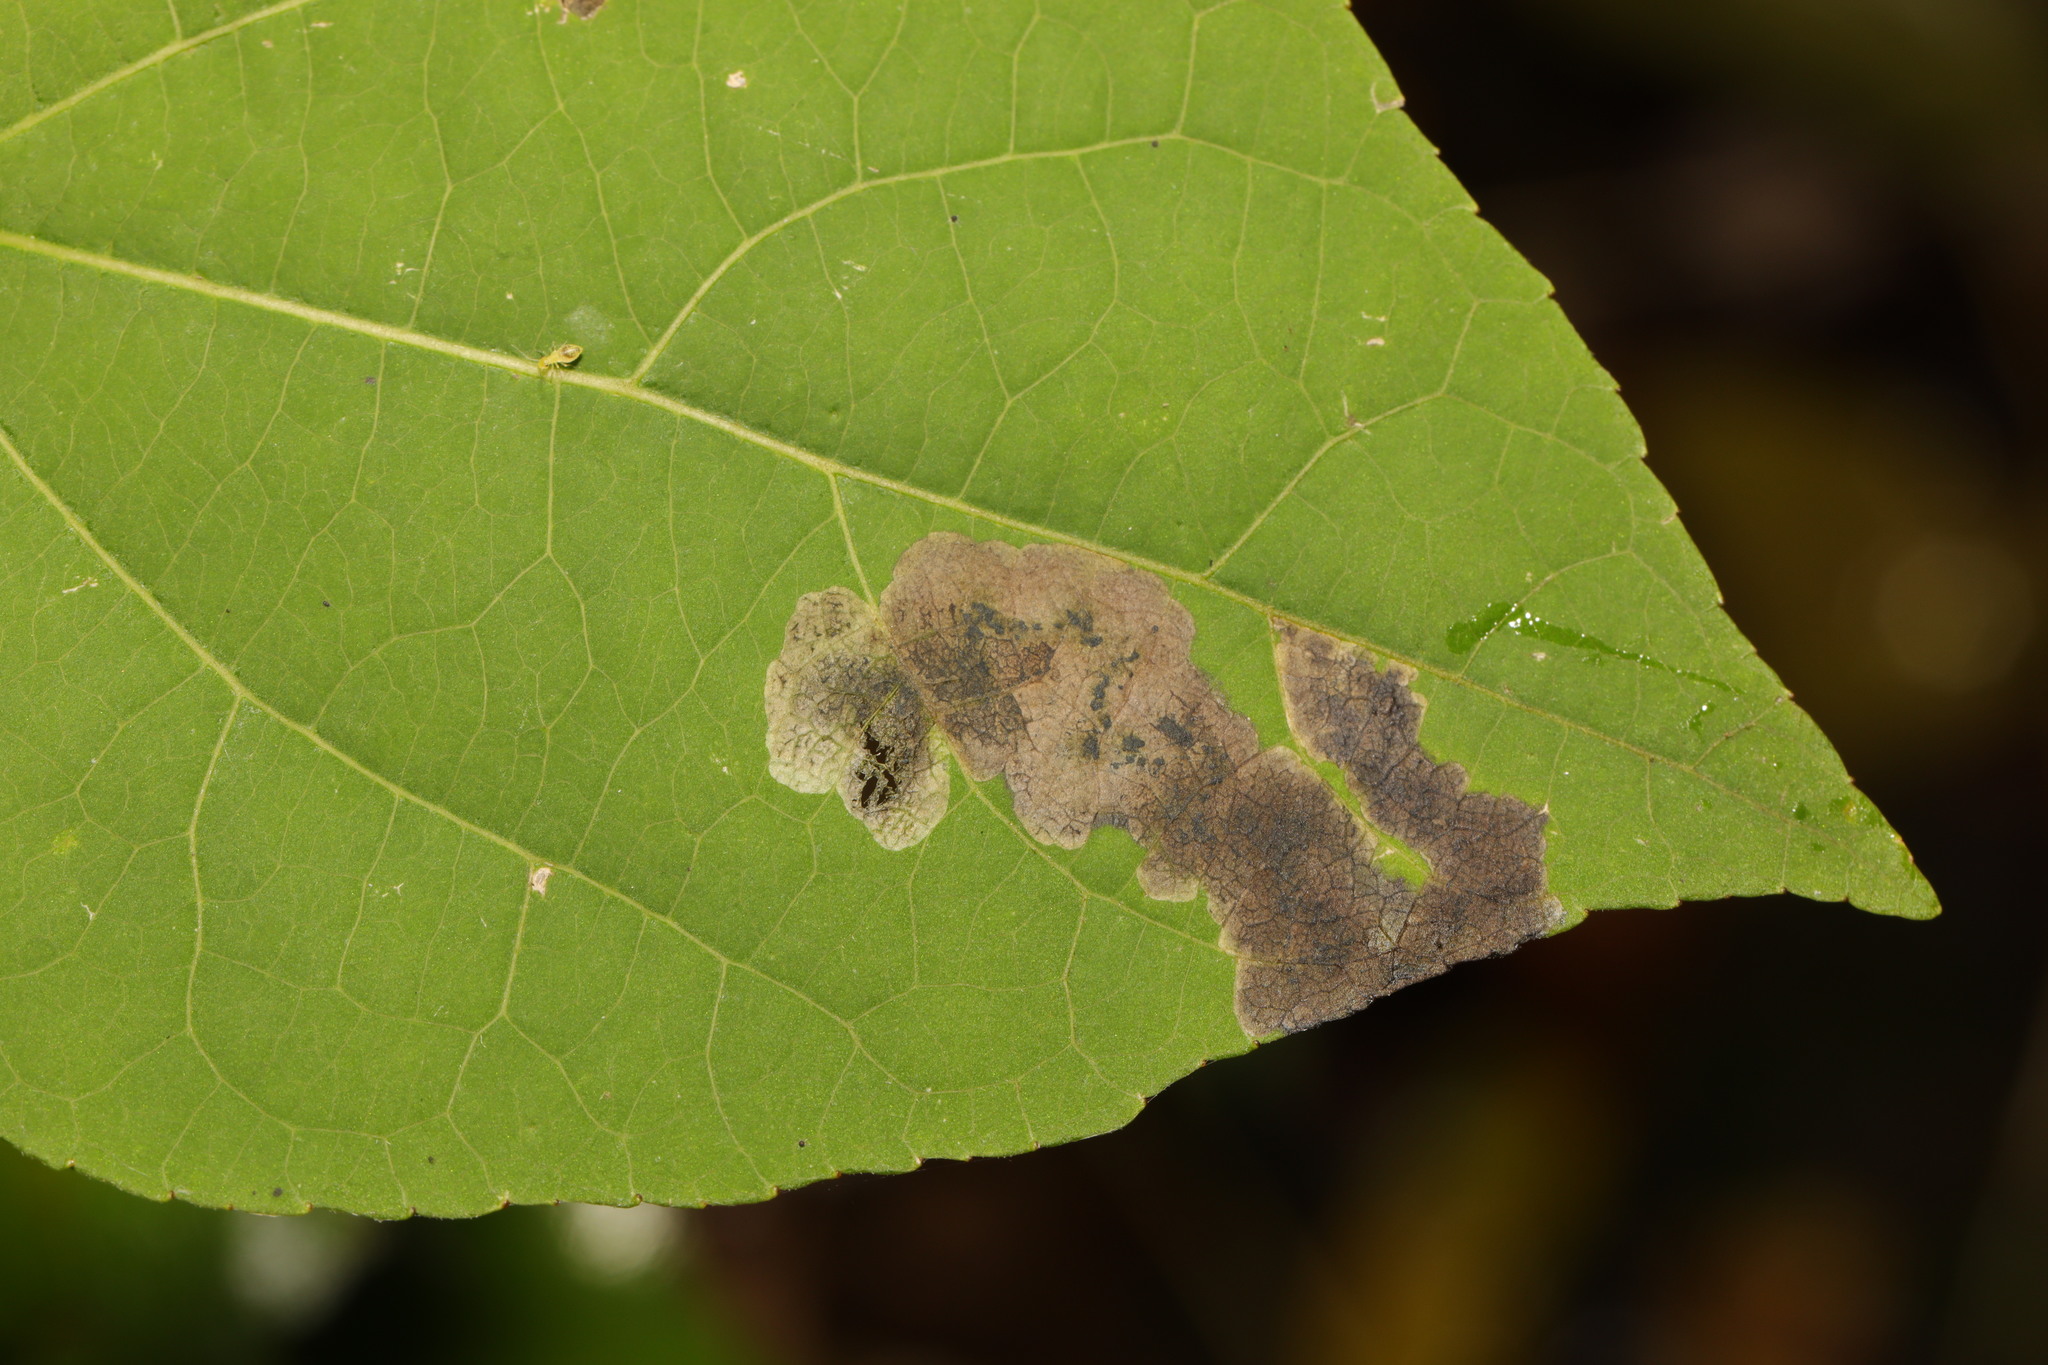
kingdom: Animalia
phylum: Arthropoda
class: Insecta
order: Diptera
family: Agromyzidae
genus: Agromyza
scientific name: Agromyza albitarsis
